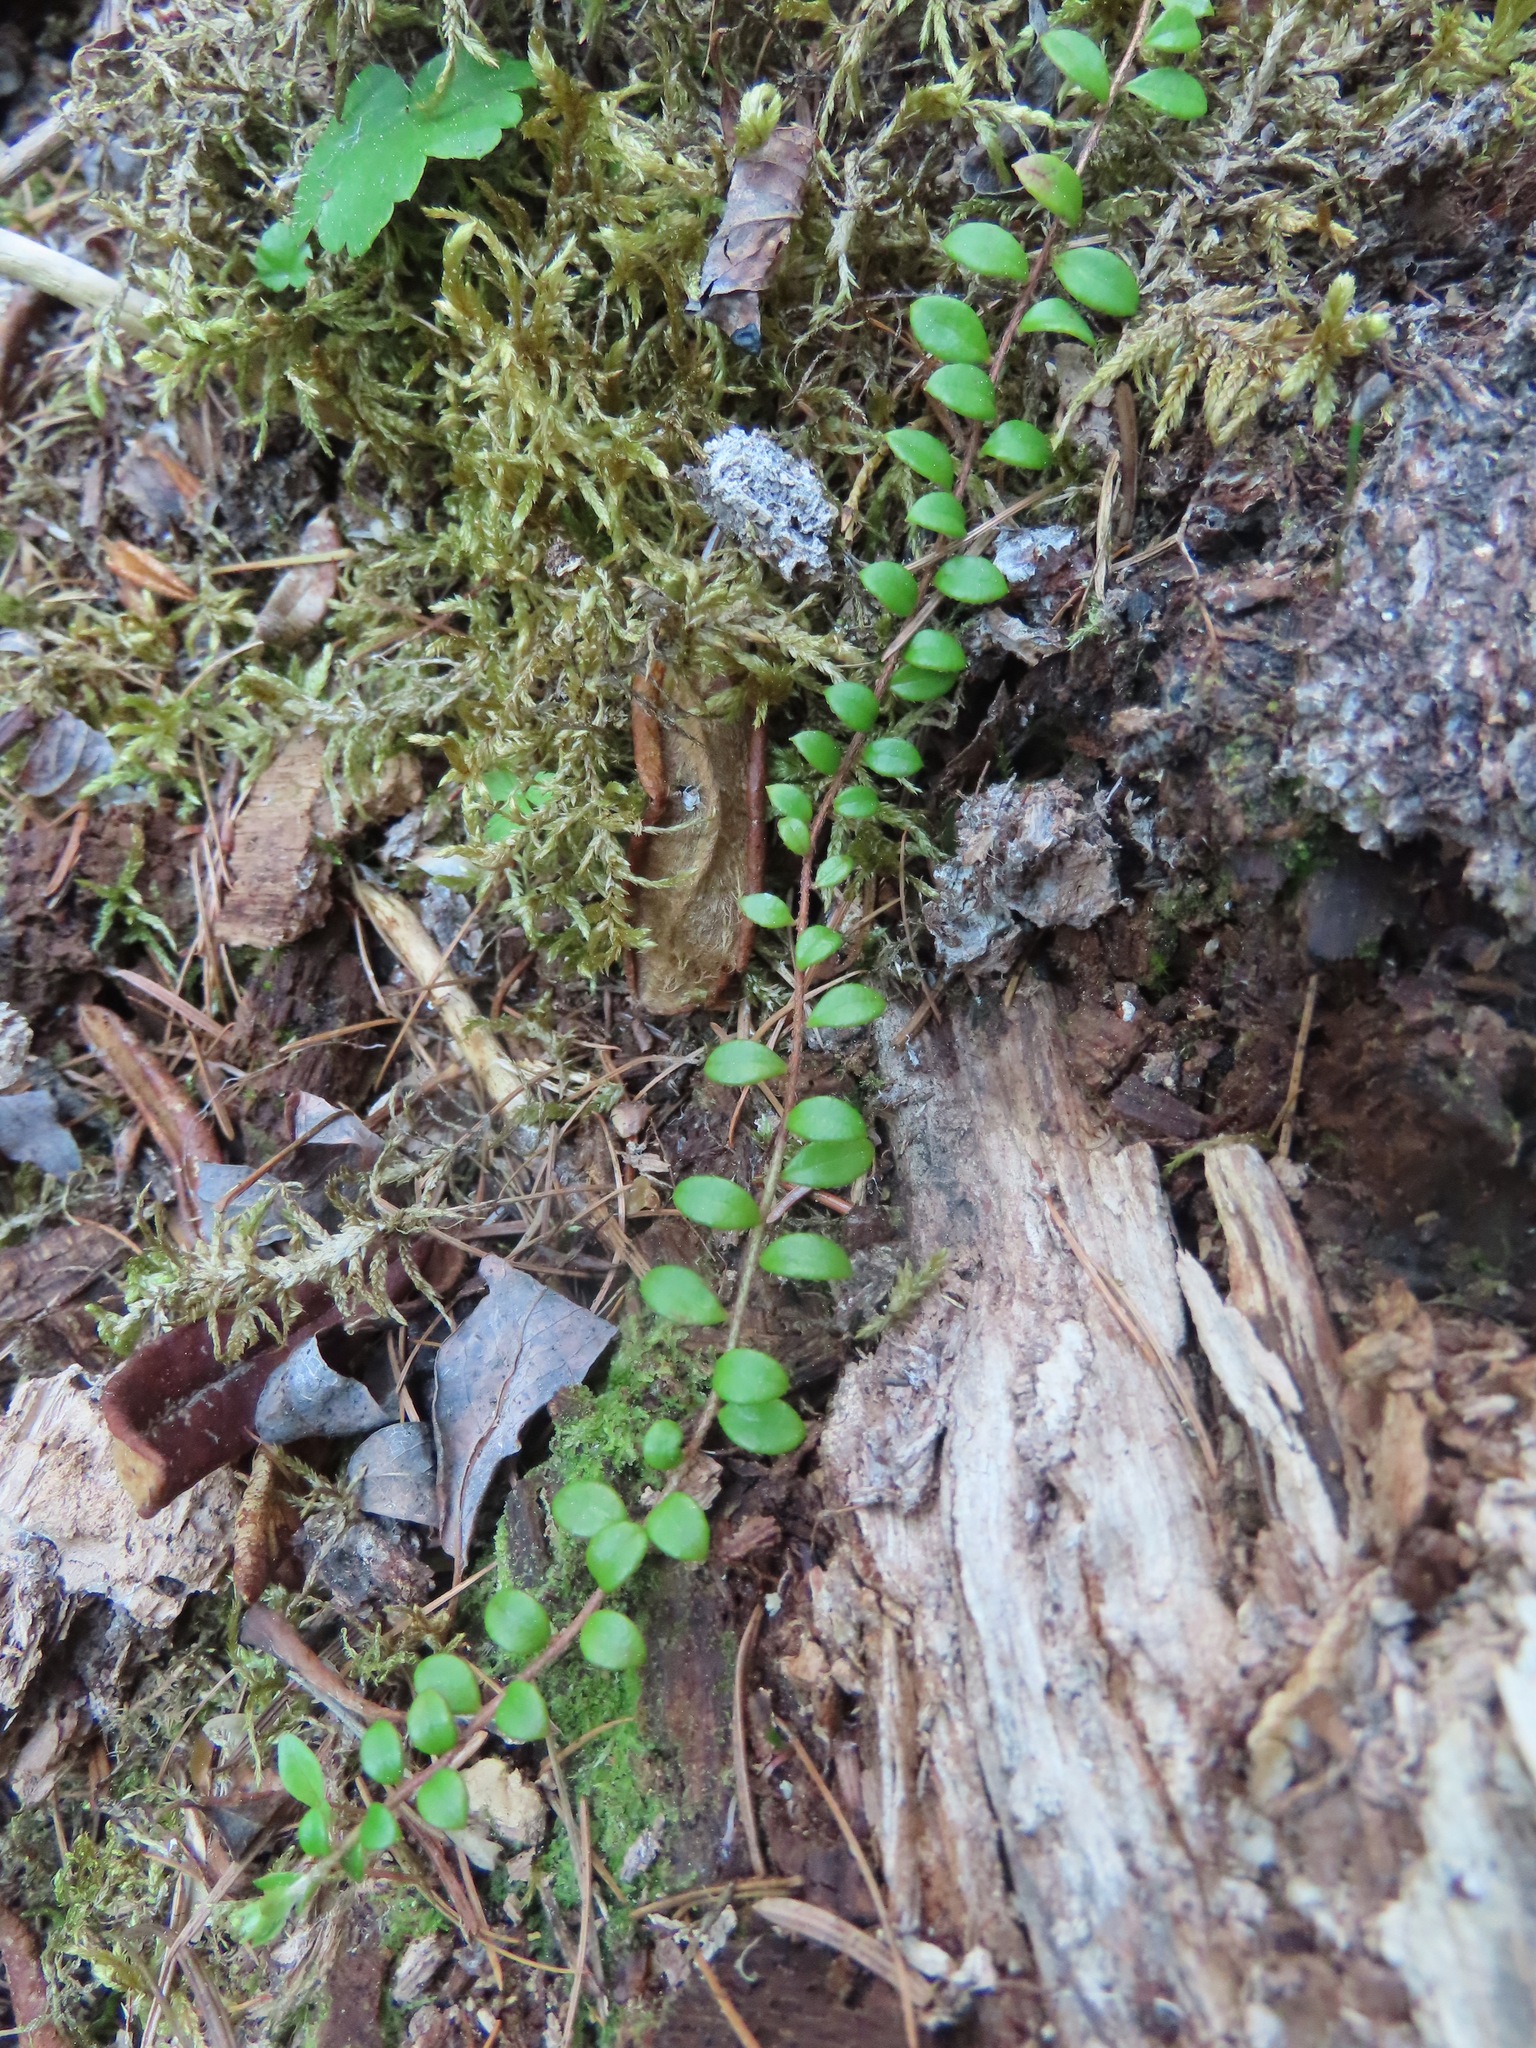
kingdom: Plantae
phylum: Tracheophyta
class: Magnoliopsida
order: Ericales
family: Ericaceae
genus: Gaultheria
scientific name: Gaultheria hispidula
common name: Cancer wintergreen
